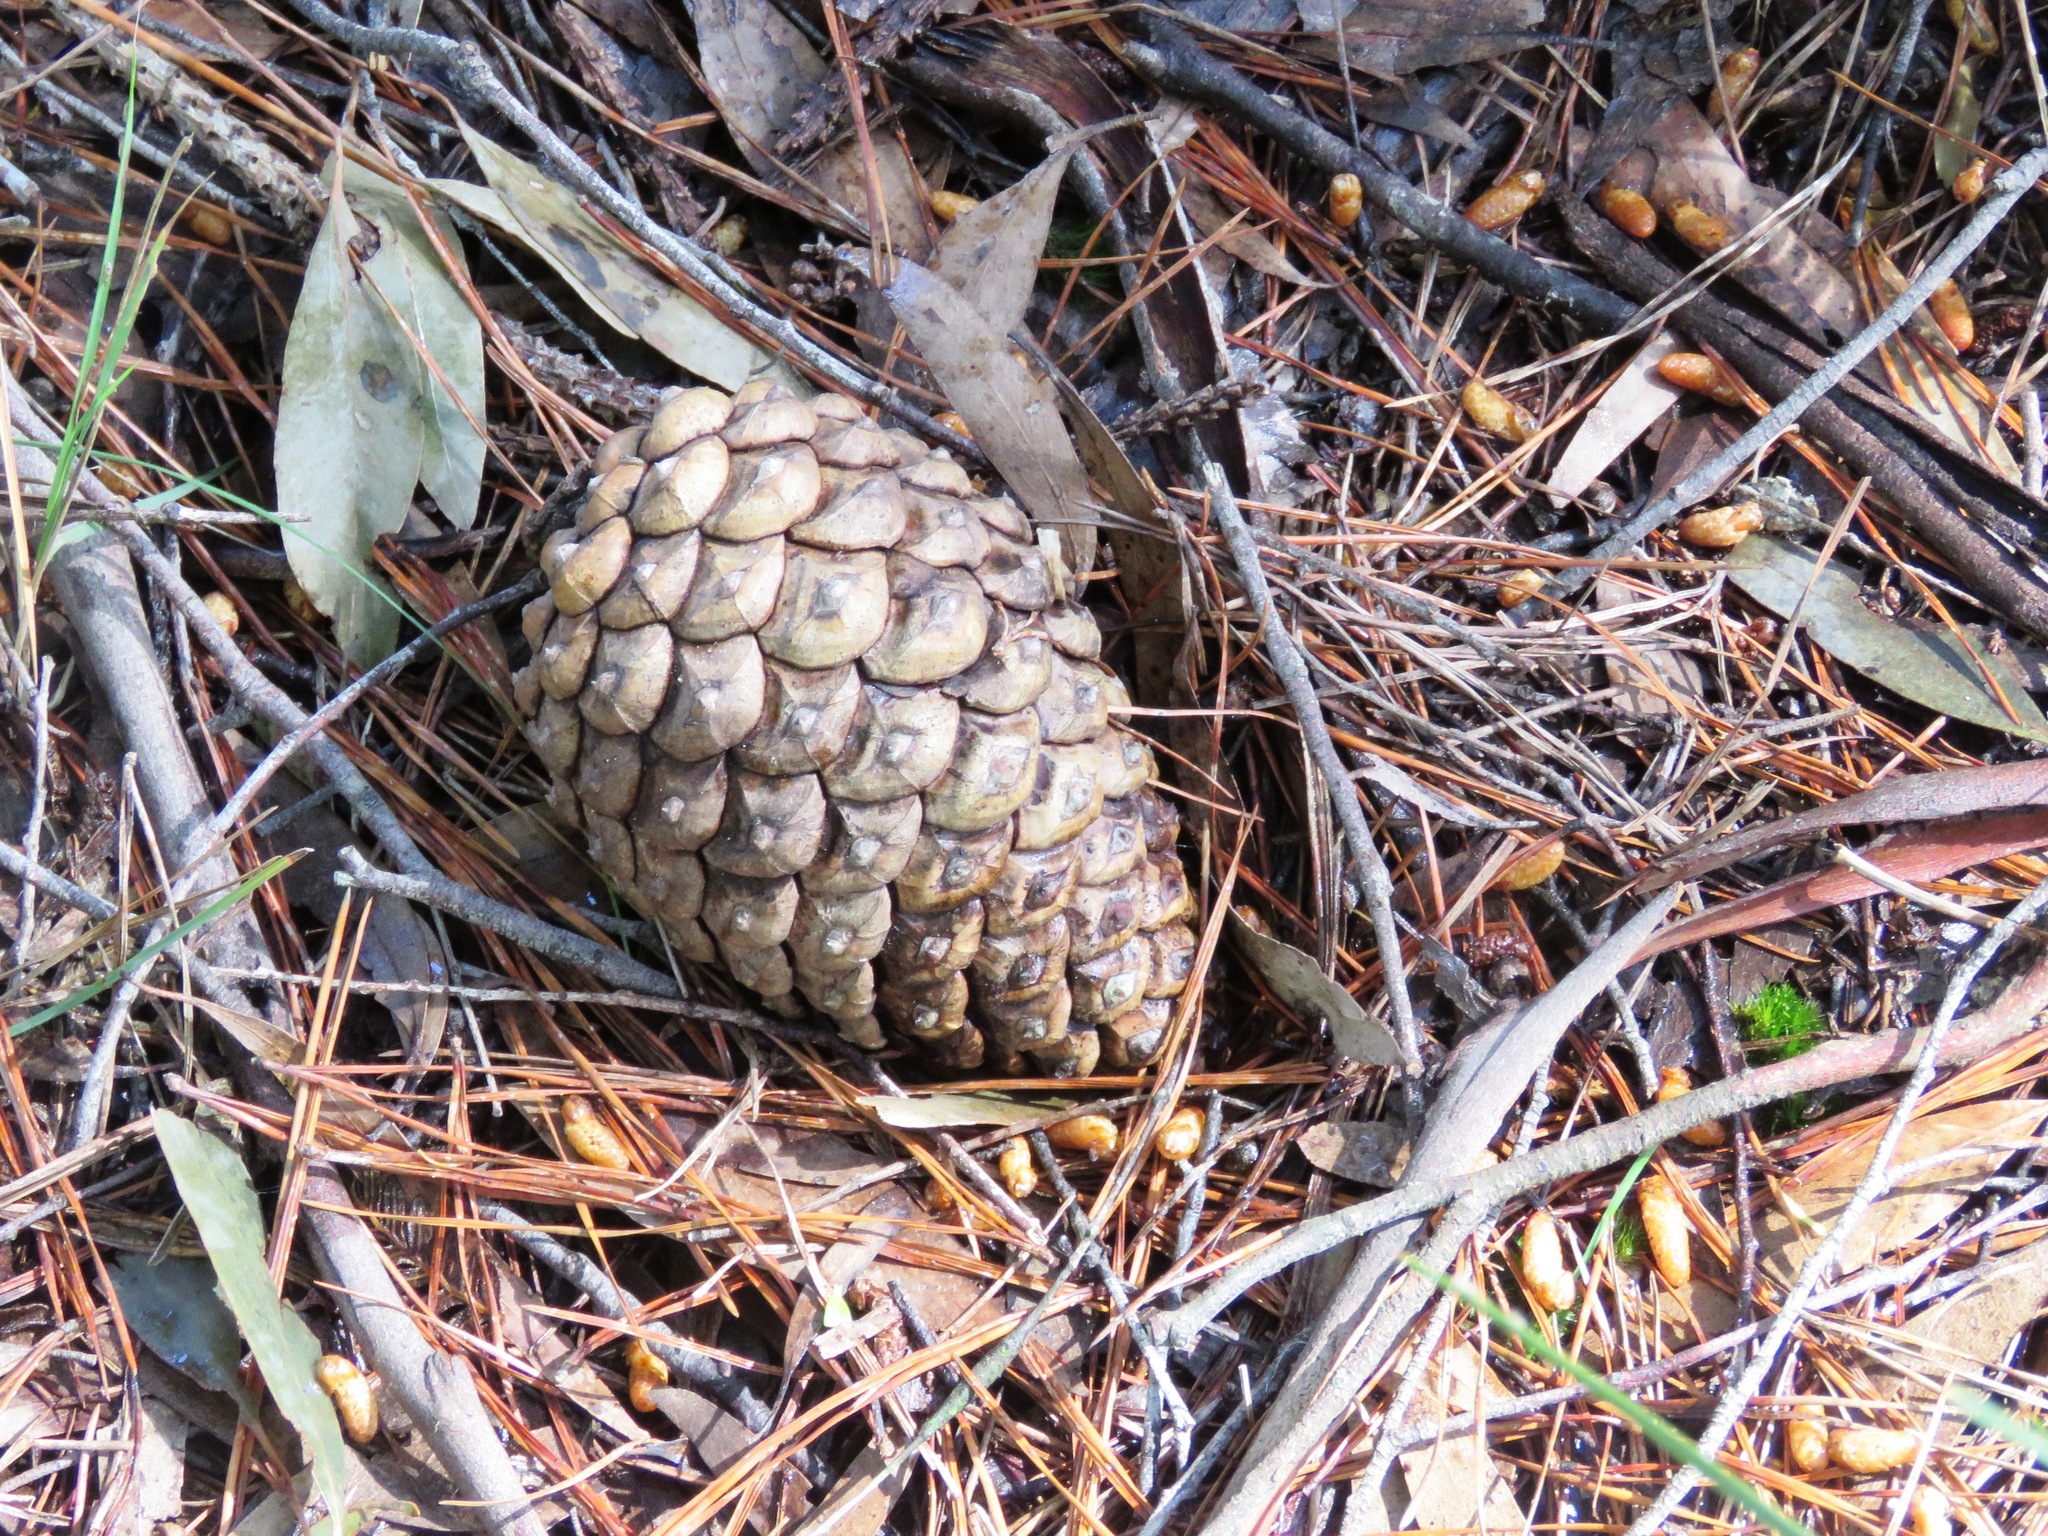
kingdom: Plantae
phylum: Tracheophyta
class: Pinopsida
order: Pinales
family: Pinaceae
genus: Pinus
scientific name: Pinus radiata
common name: Monterey pine
